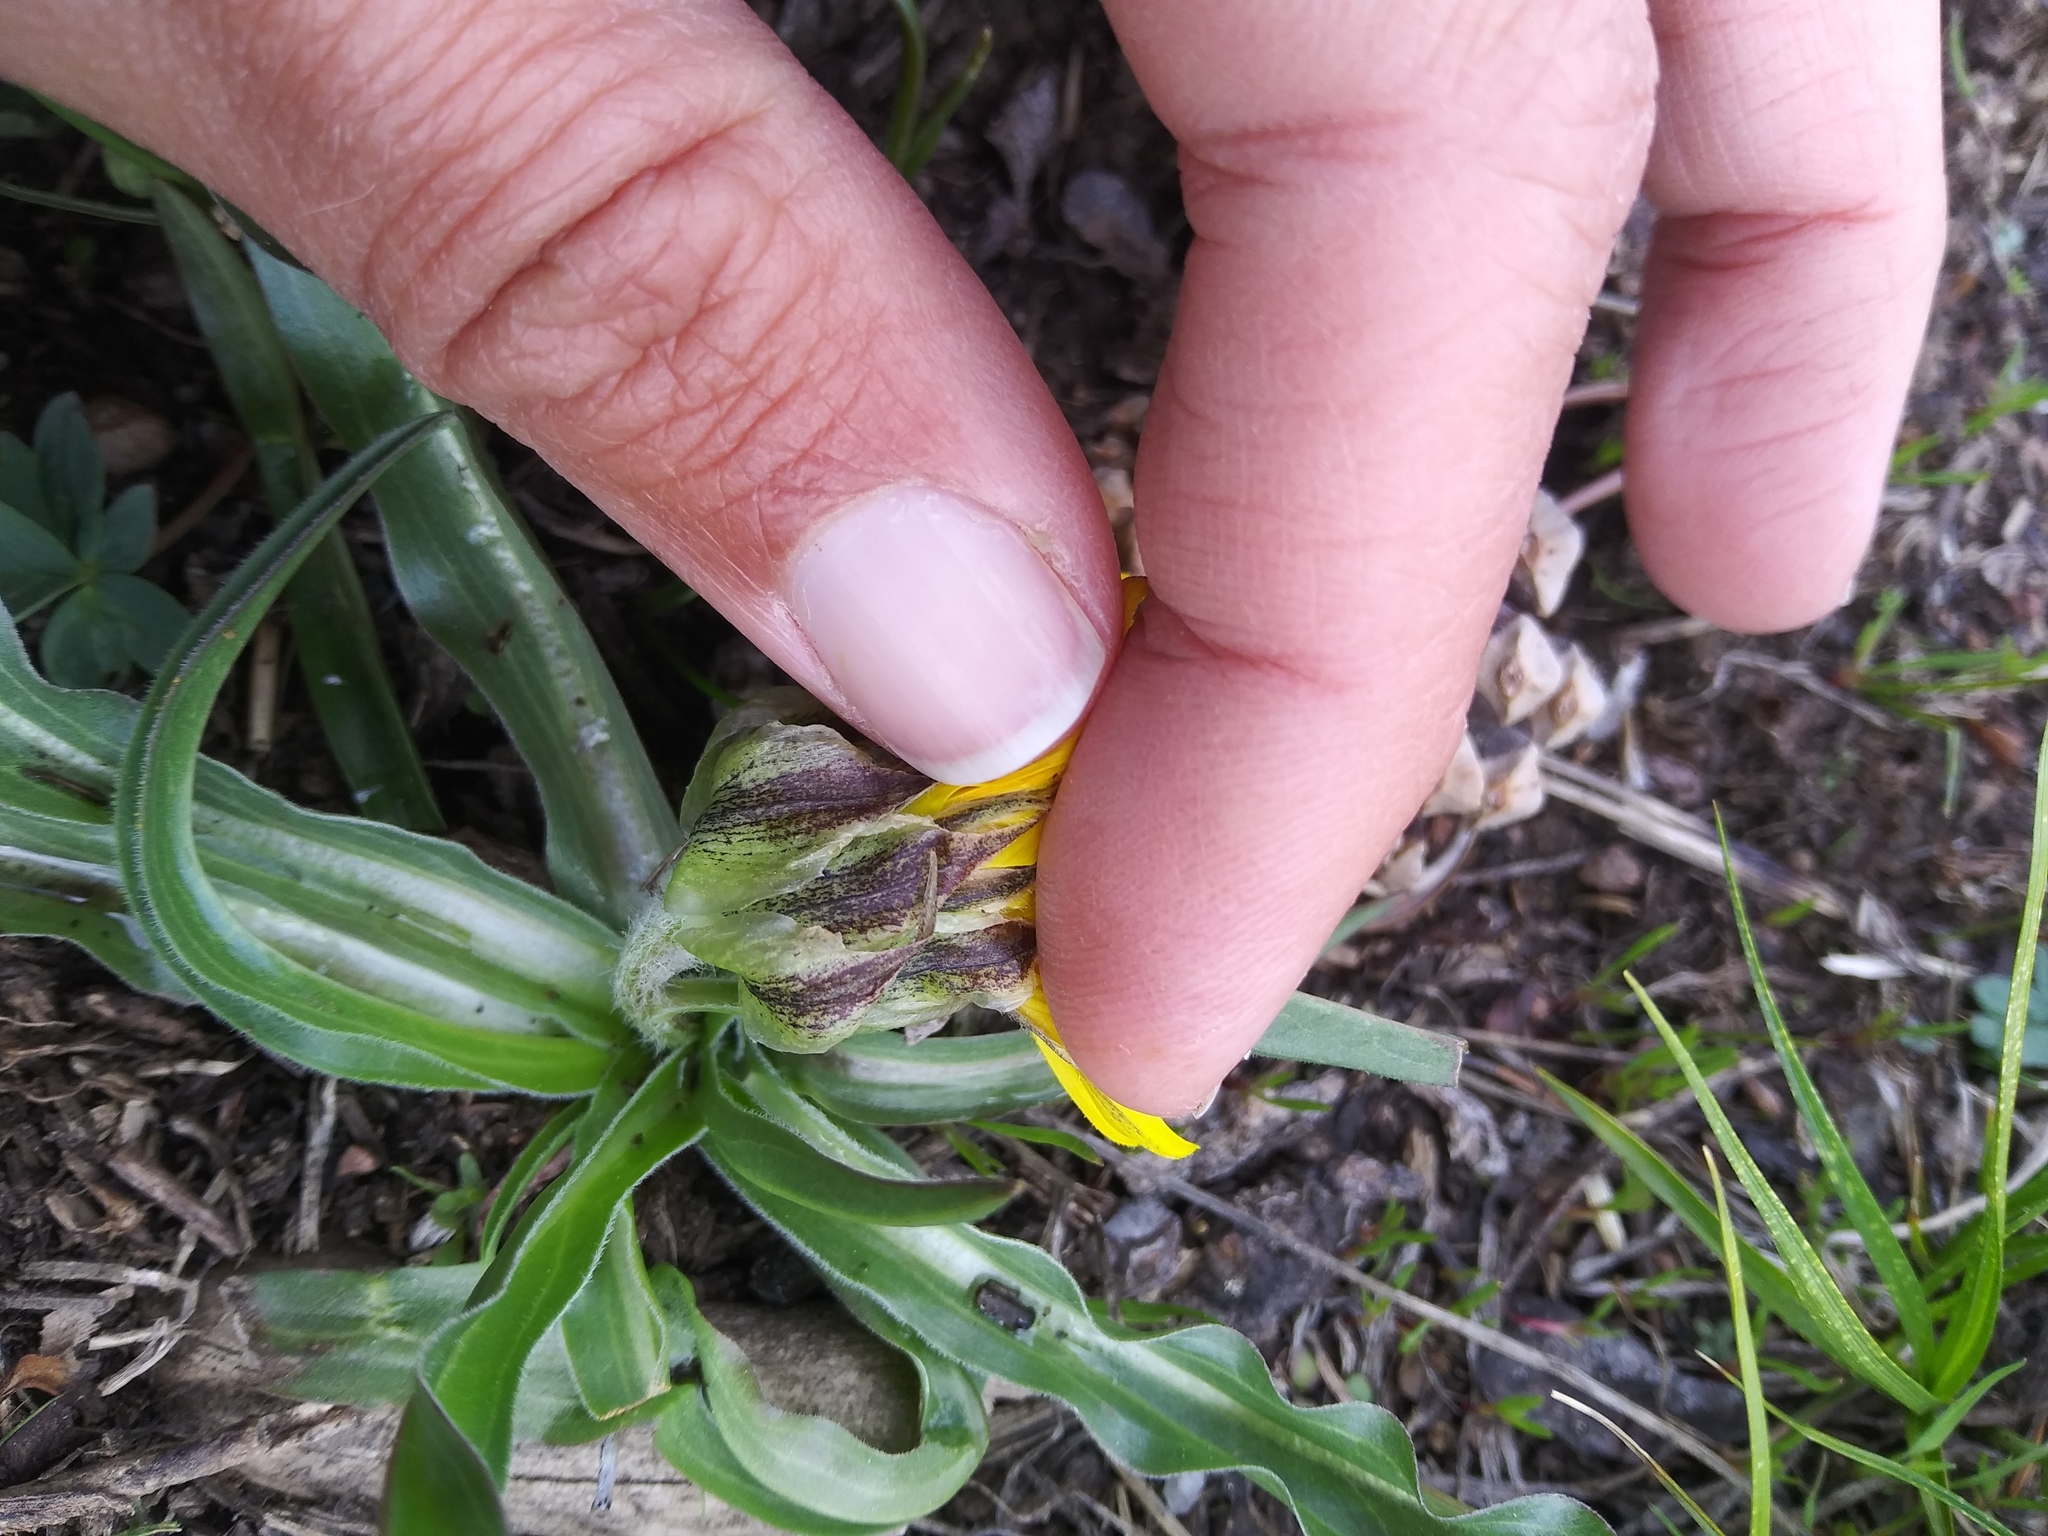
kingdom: Plantae
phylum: Tracheophyta
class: Magnoliopsida
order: Asterales
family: Asteraceae
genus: Microseris
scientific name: Microseris nigrescens
